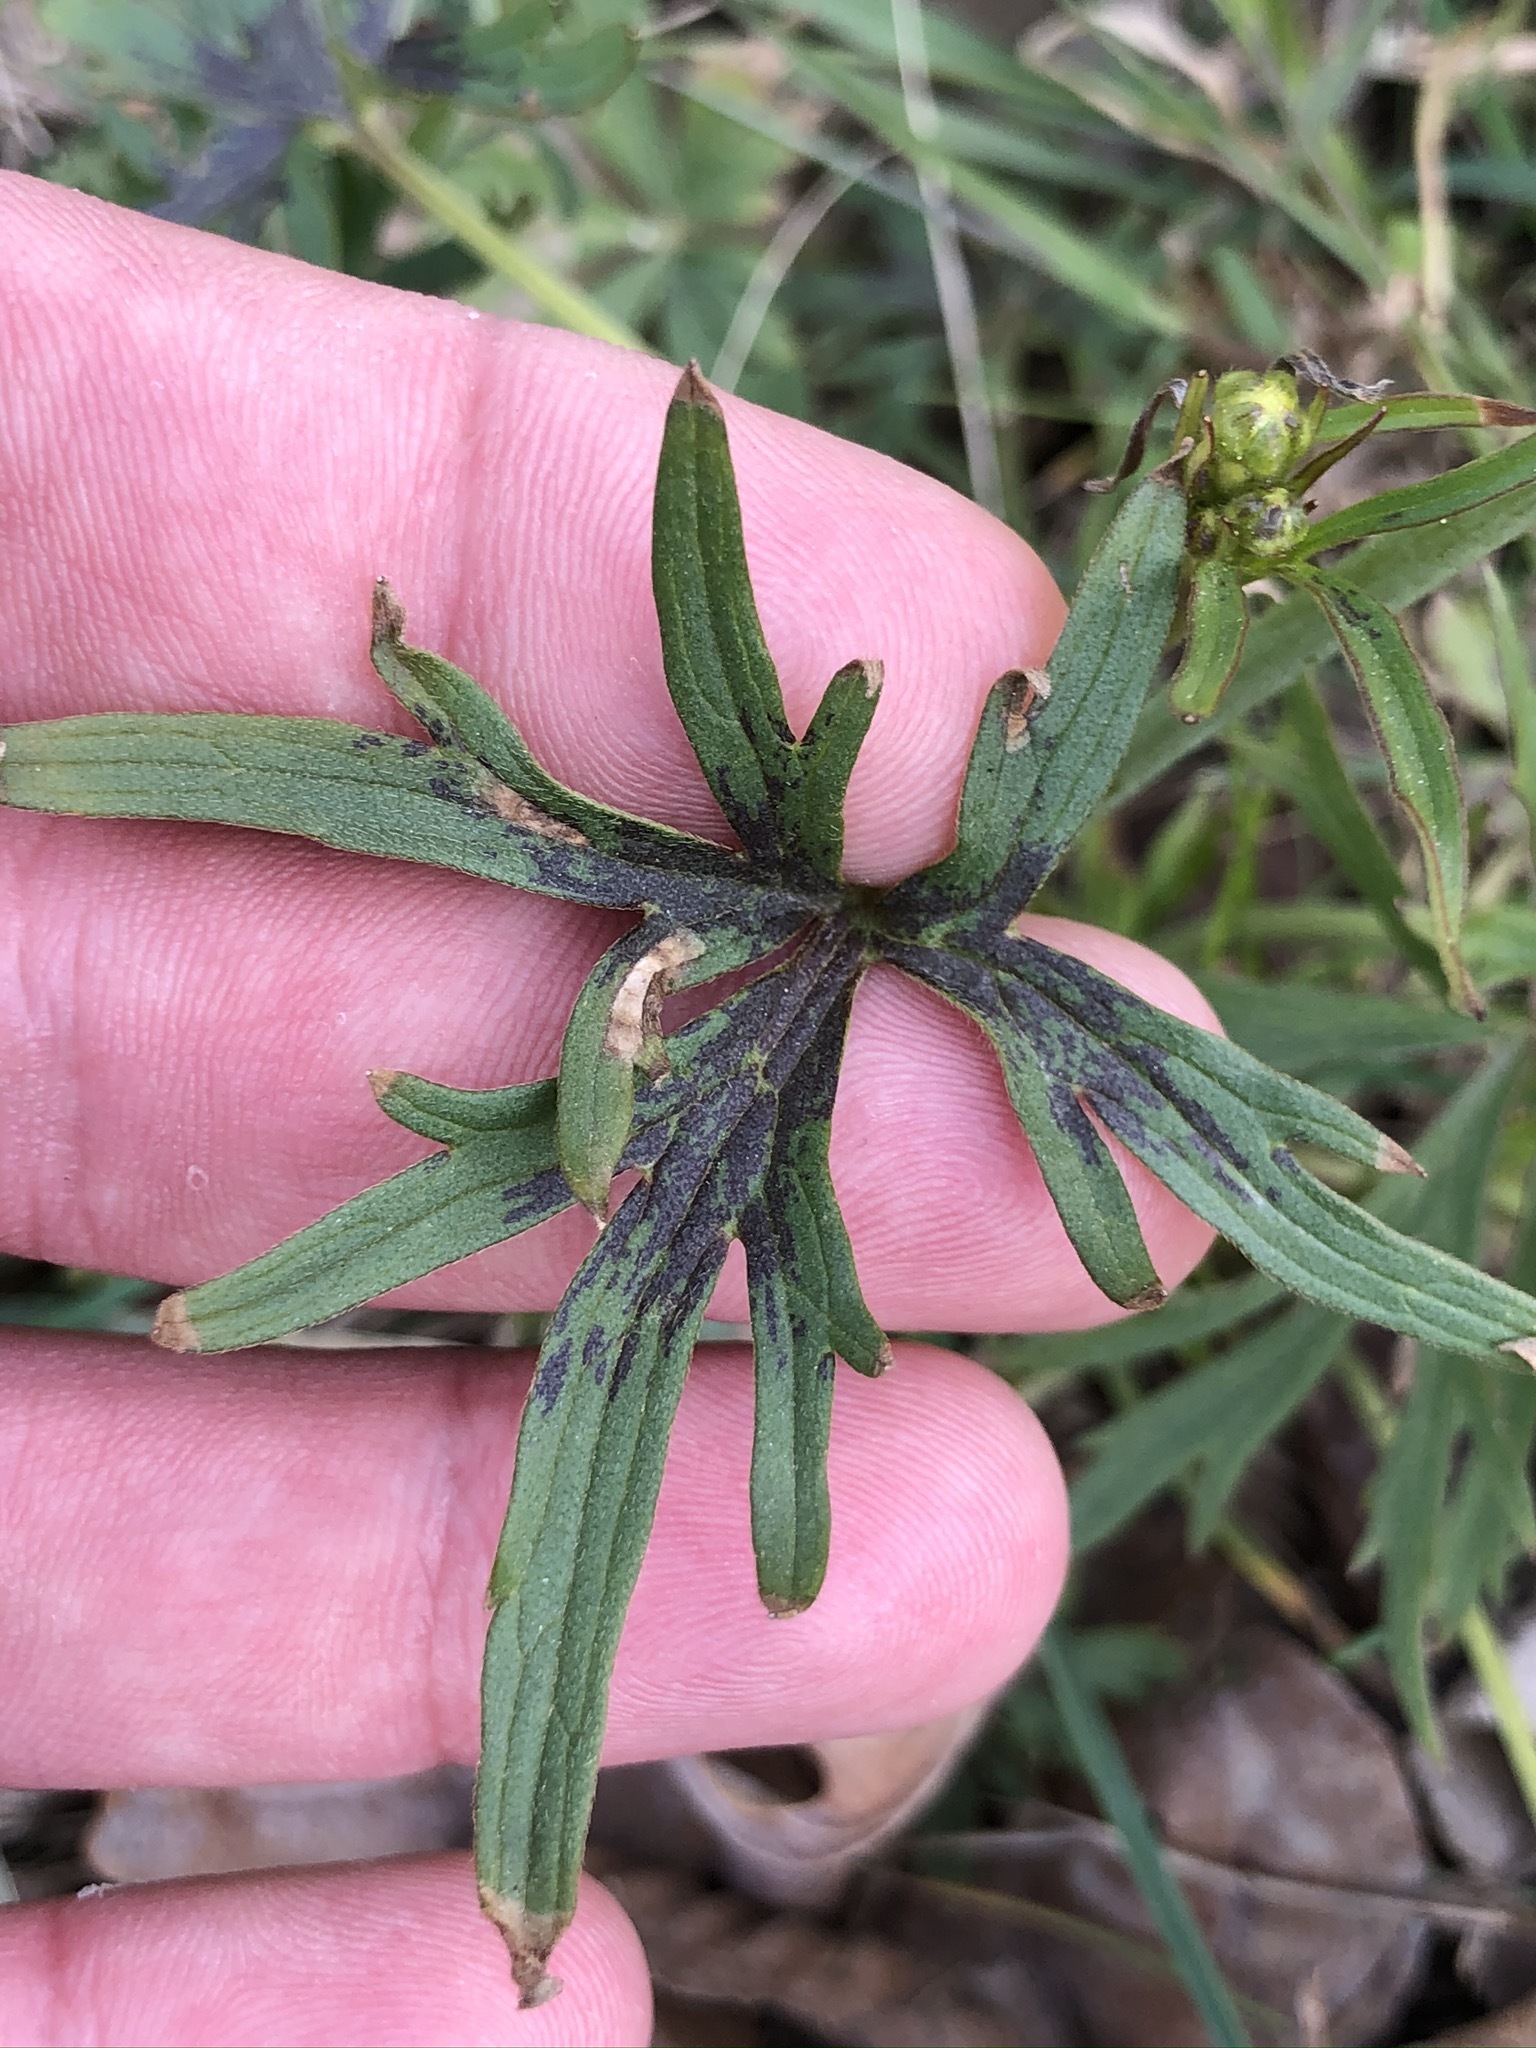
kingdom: Plantae
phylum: Tracheophyta
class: Magnoliopsida
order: Ranunculales
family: Ranunculaceae
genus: Ranunculus
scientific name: Ranunculus acris
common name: Meadow buttercup
